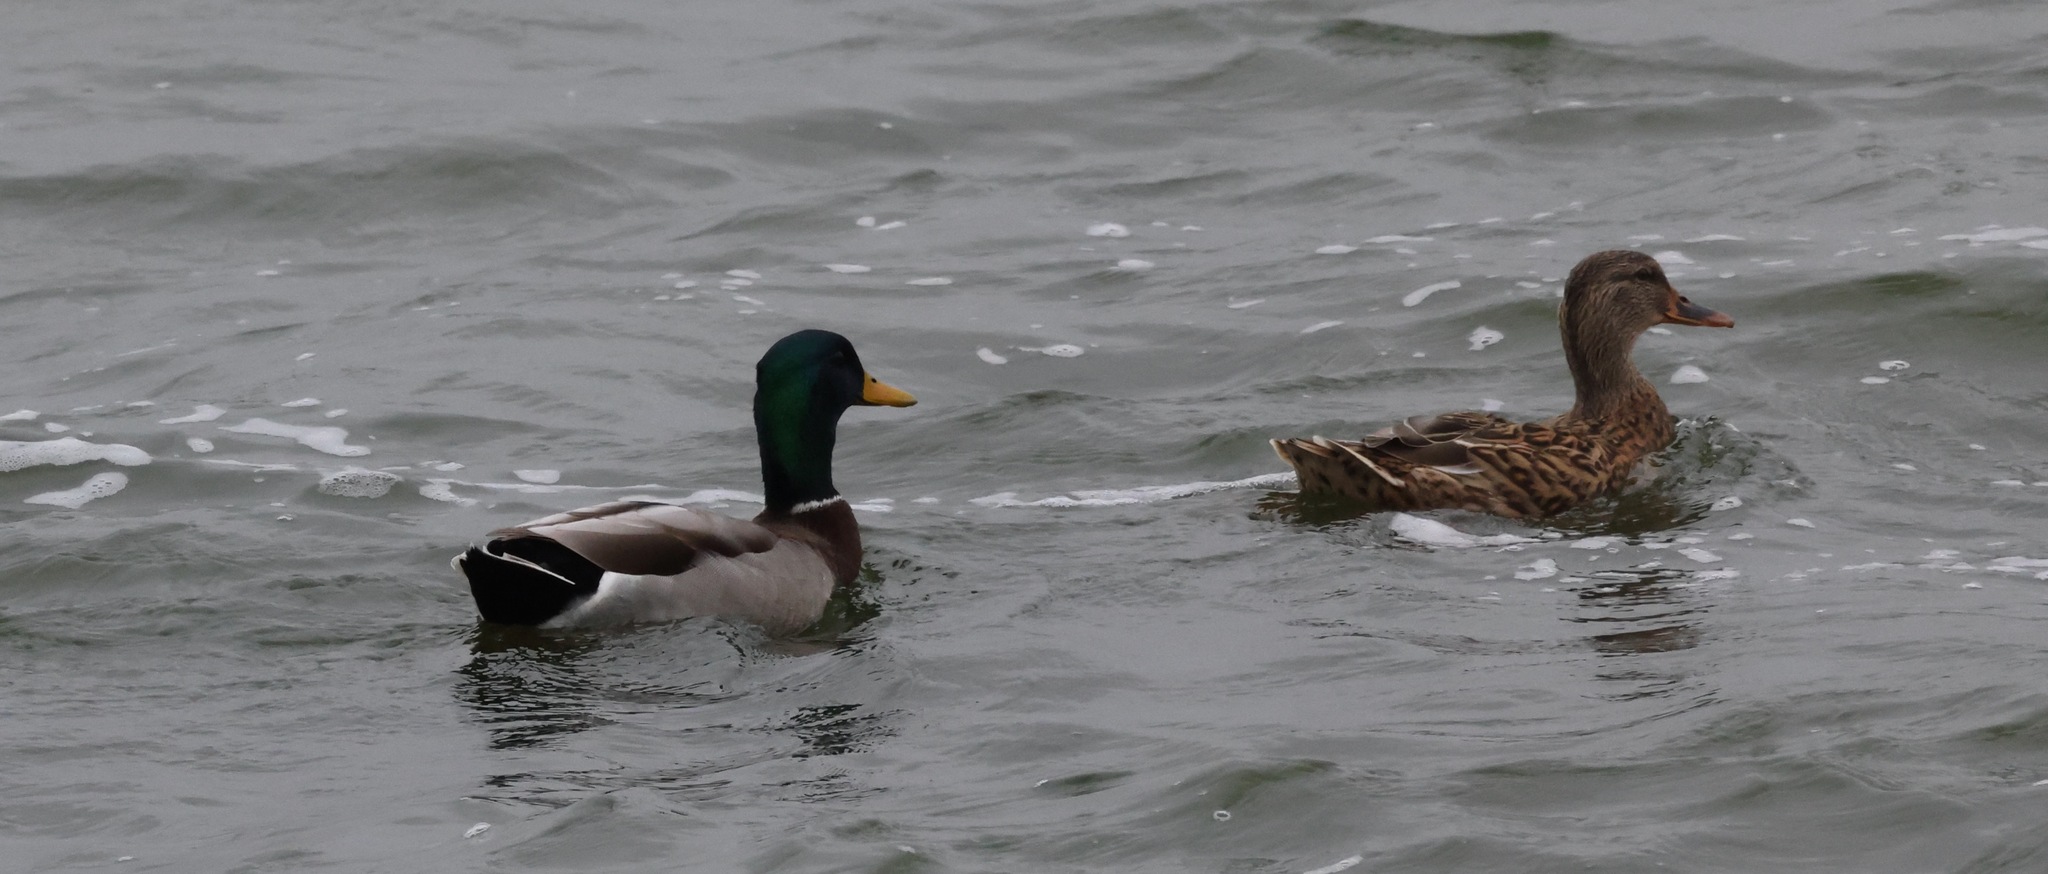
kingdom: Animalia
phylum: Chordata
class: Aves
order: Anseriformes
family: Anatidae
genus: Anas
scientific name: Anas platyrhynchos
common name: Mallard
